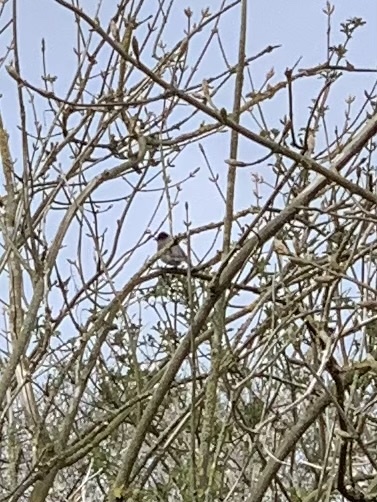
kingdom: Animalia
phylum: Chordata
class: Aves
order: Passeriformes
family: Sylviidae
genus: Sylvia
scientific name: Sylvia atricapilla
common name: Eurasian blackcap
